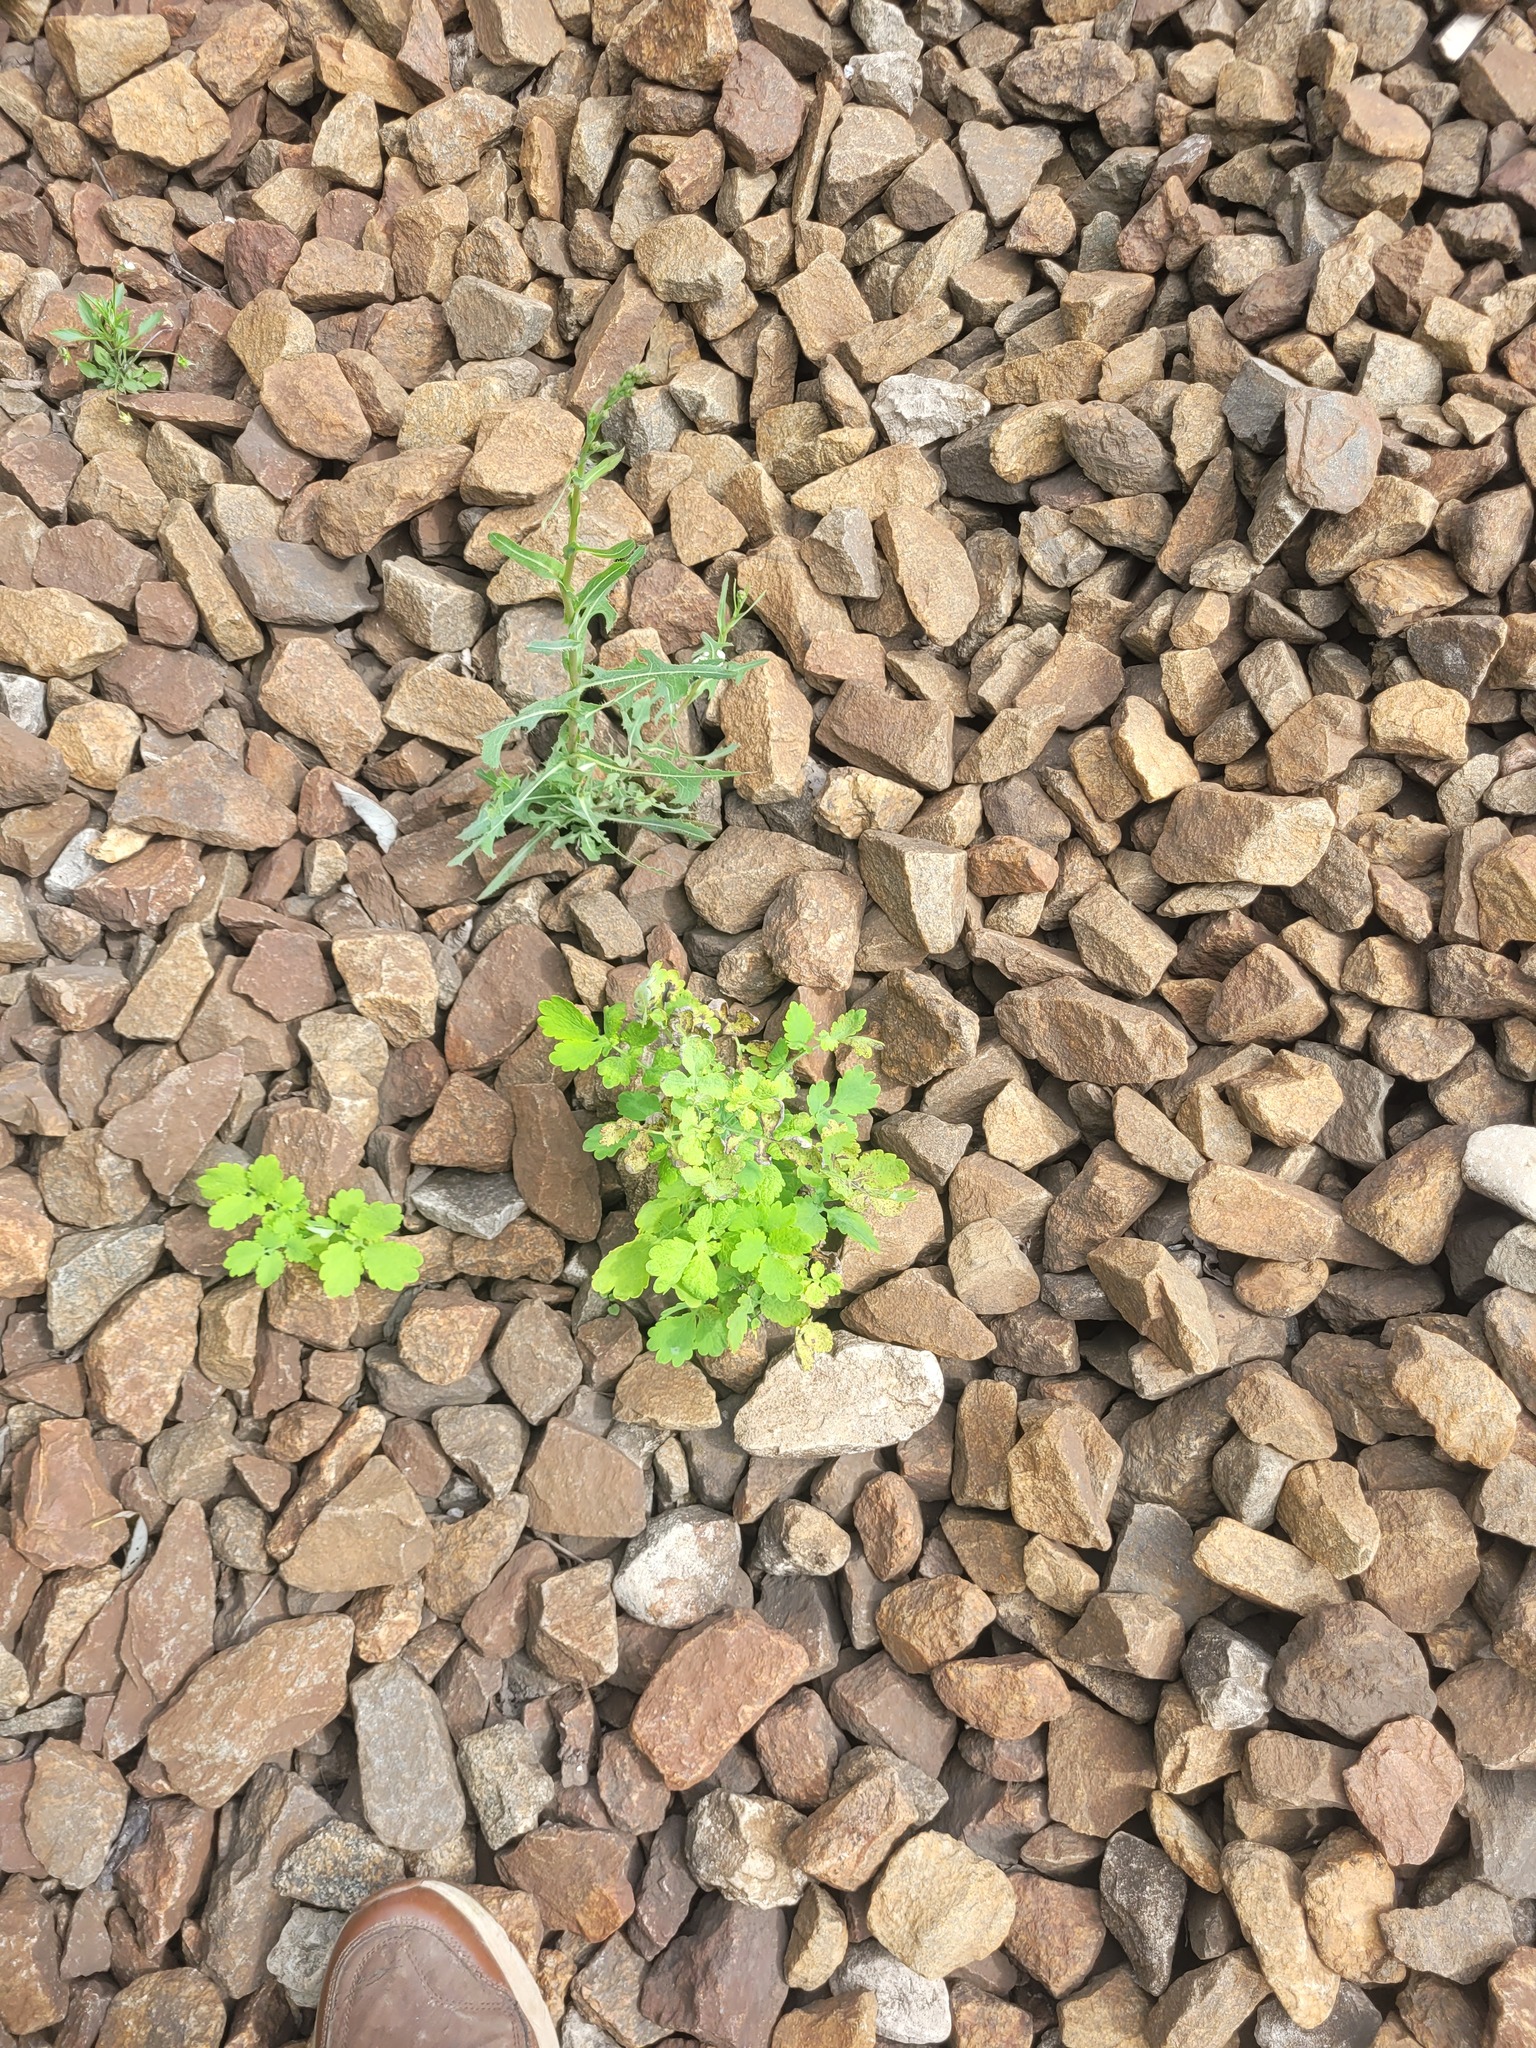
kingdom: Plantae
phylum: Tracheophyta
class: Magnoliopsida
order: Ranunculales
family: Papaveraceae
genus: Chelidonium
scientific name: Chelidonium majus
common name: Greater celandine
